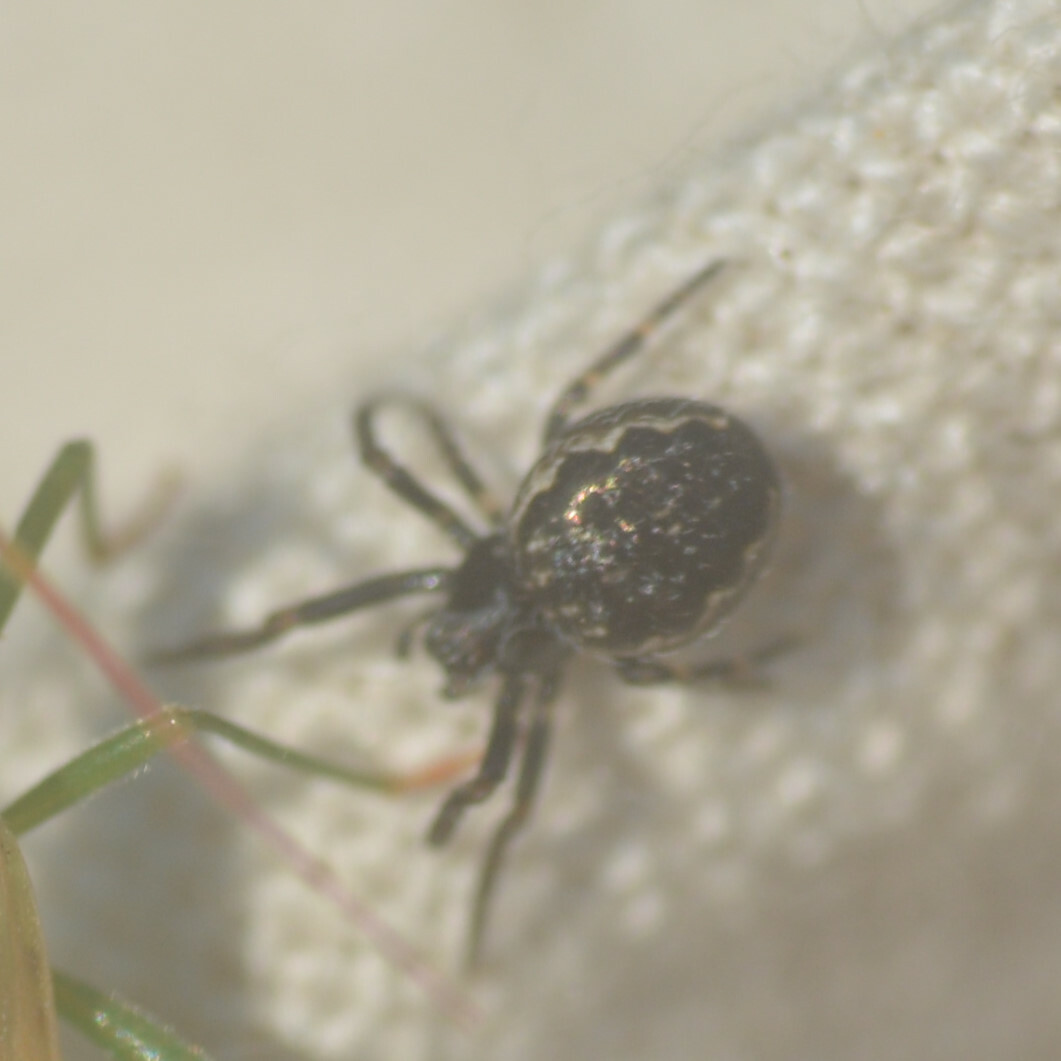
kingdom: Animalia
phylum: Arthropoda
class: Arachnida
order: Araneae
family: Araneidae
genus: Nuctenea
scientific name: Nuctenea umbratica
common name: Toad spider
